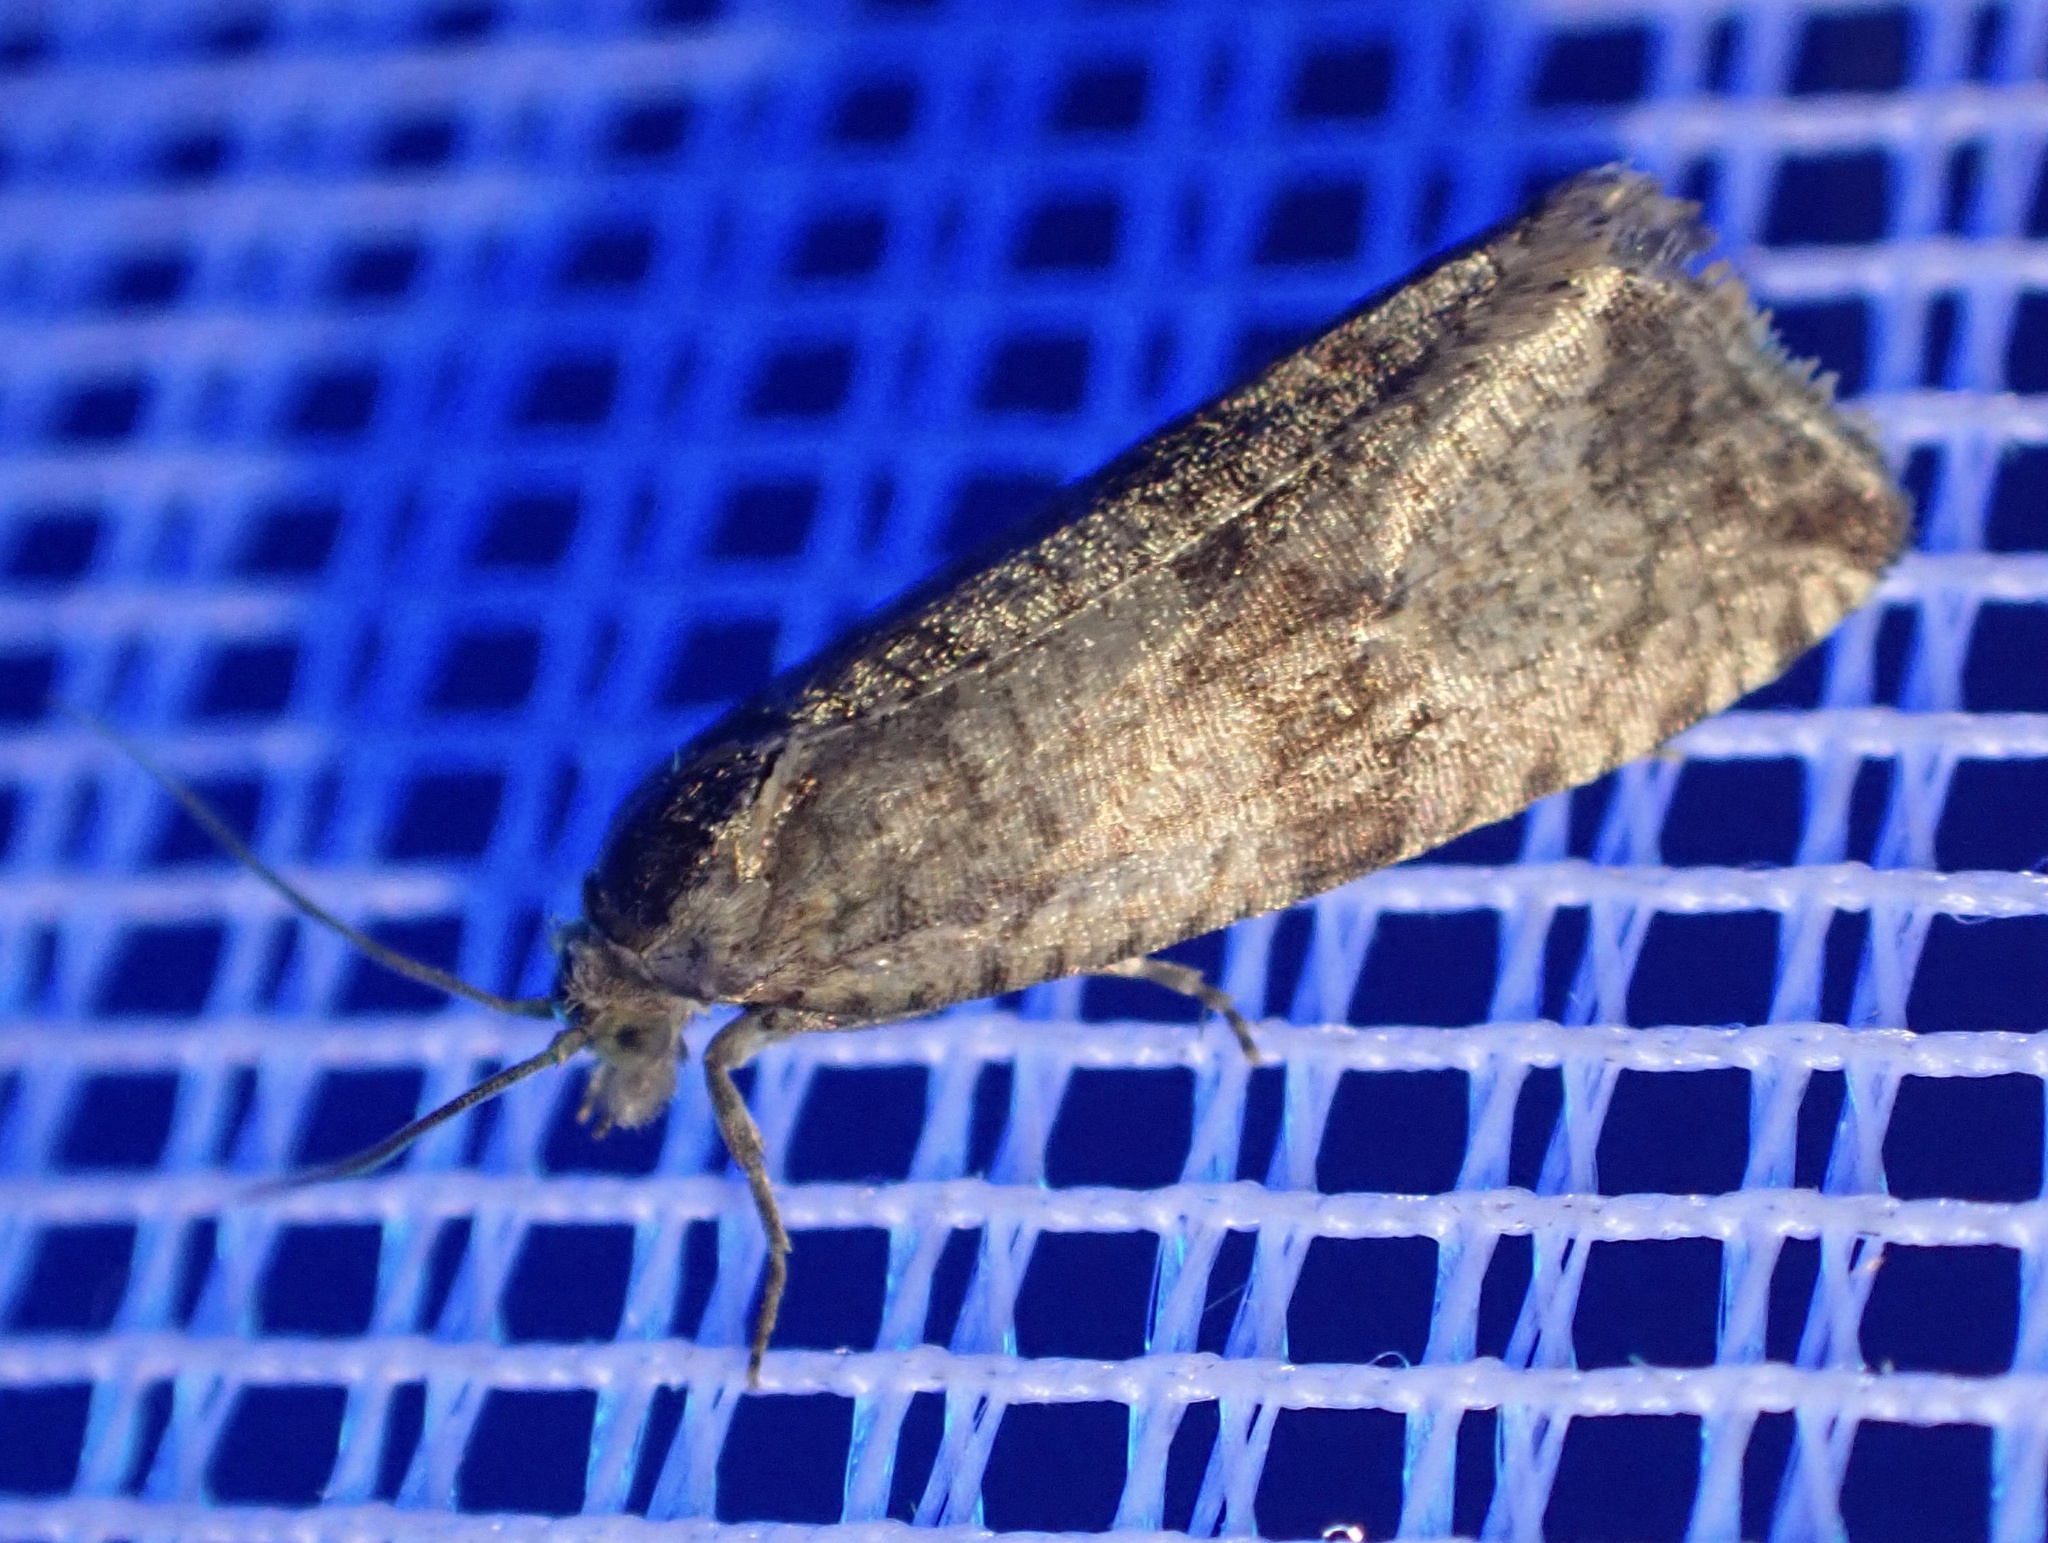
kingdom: Animalia
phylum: Arthropoda
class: Insecta
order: Lepidoptera
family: Tortricidae
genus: Celypha
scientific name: Celypha striana
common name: Barred marble
